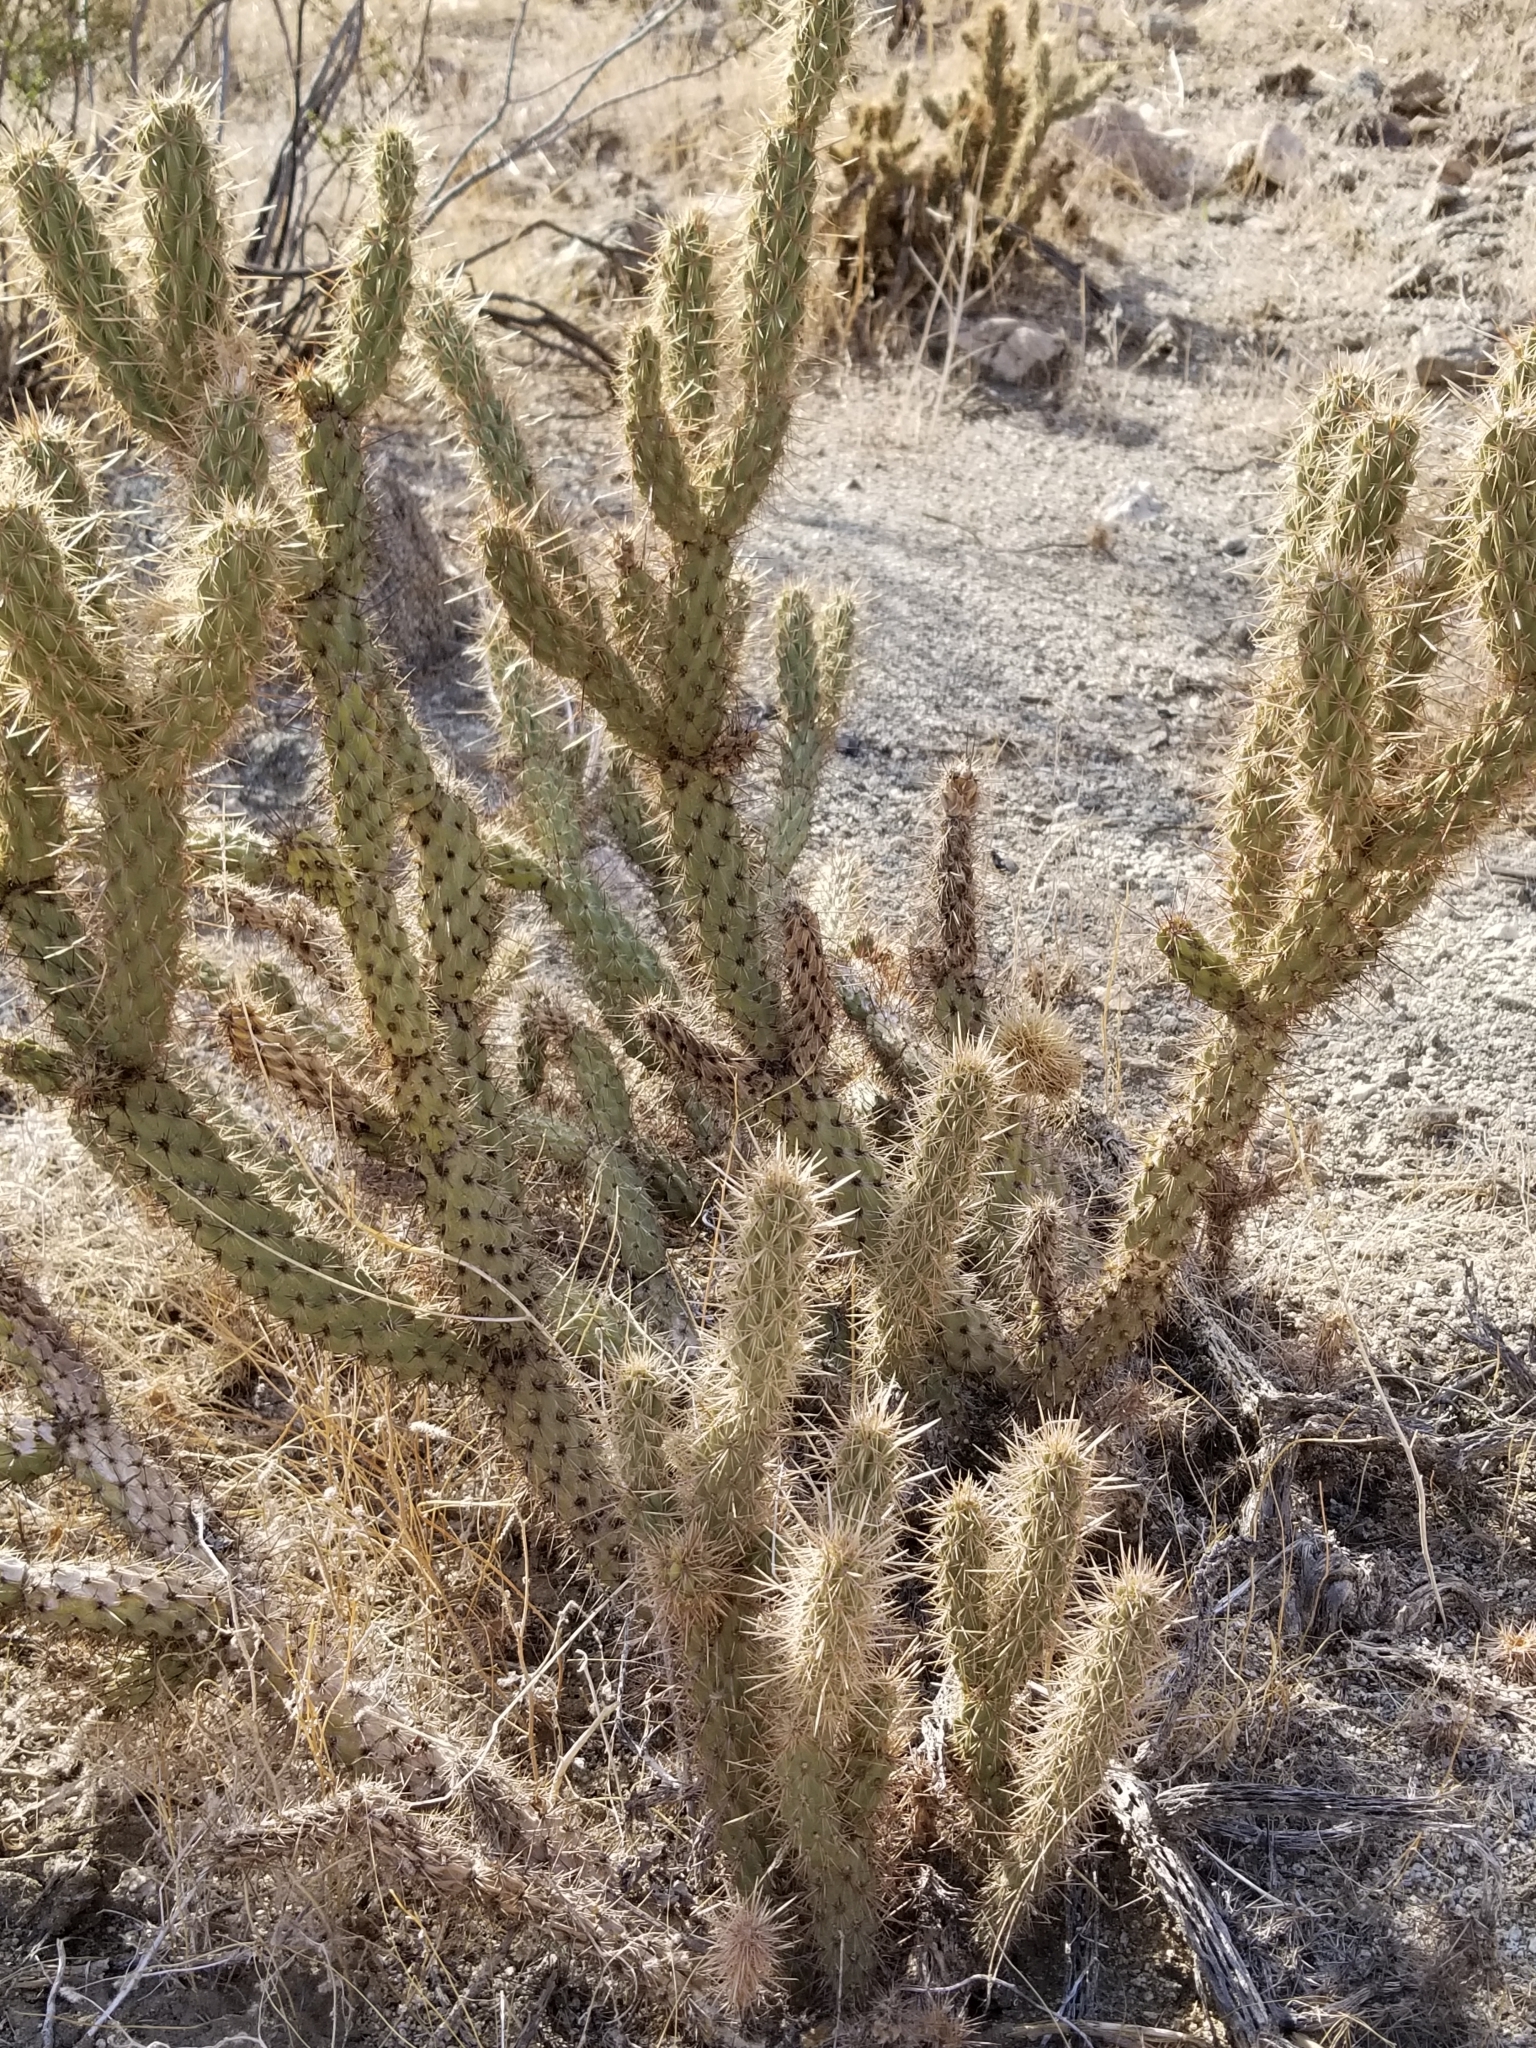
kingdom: Plantae
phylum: Tracheophyta
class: Magnoliopsida
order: Caryophyllales
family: Cactaceae
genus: Cylindropuntia
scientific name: Cylindropuntia ganderi
